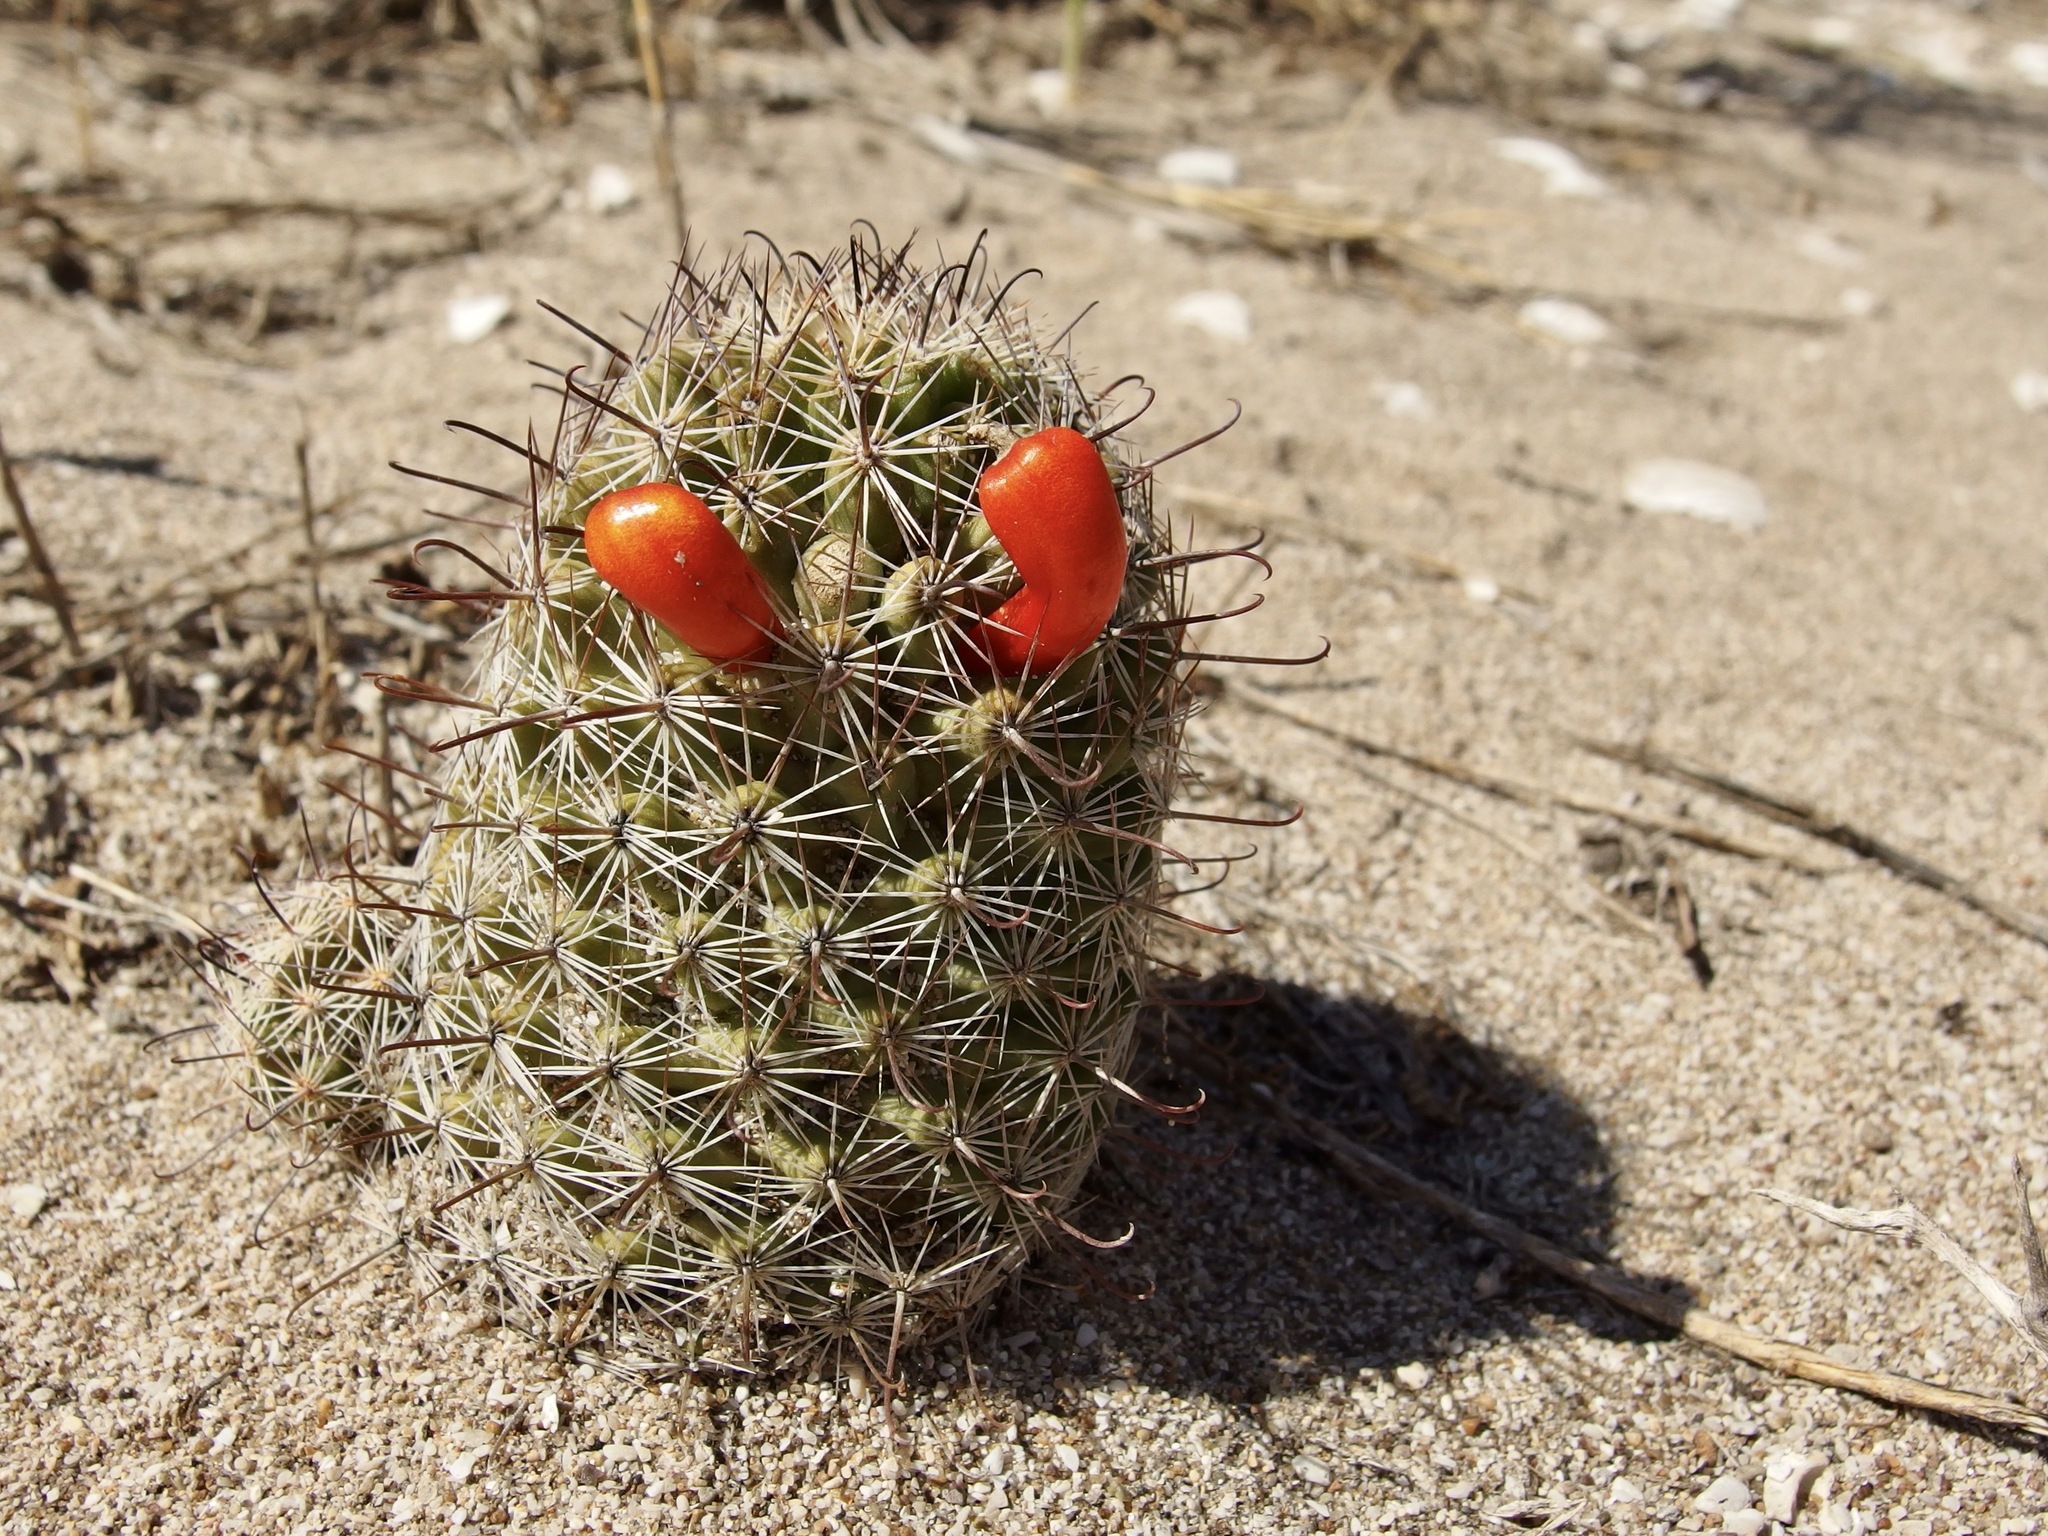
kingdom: Plantae
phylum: Tracheophyta
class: Magnoliopsida
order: Caryophyllales
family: Cactaceae
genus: Cochemiea
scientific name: Cochemiea sheldonii
